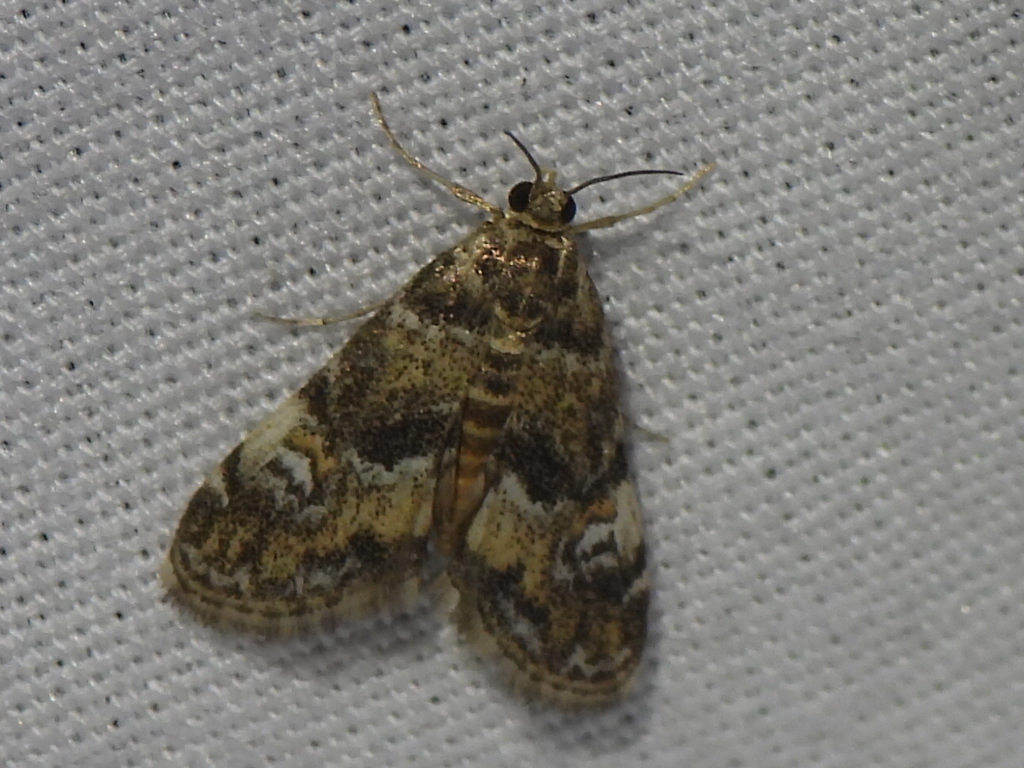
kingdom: Animalia
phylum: Arthropoda
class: Insecta
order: Lepidoptera
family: Crambidae
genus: Elophila
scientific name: Elophila obliteralis
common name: Waterlily leafcutter moth
